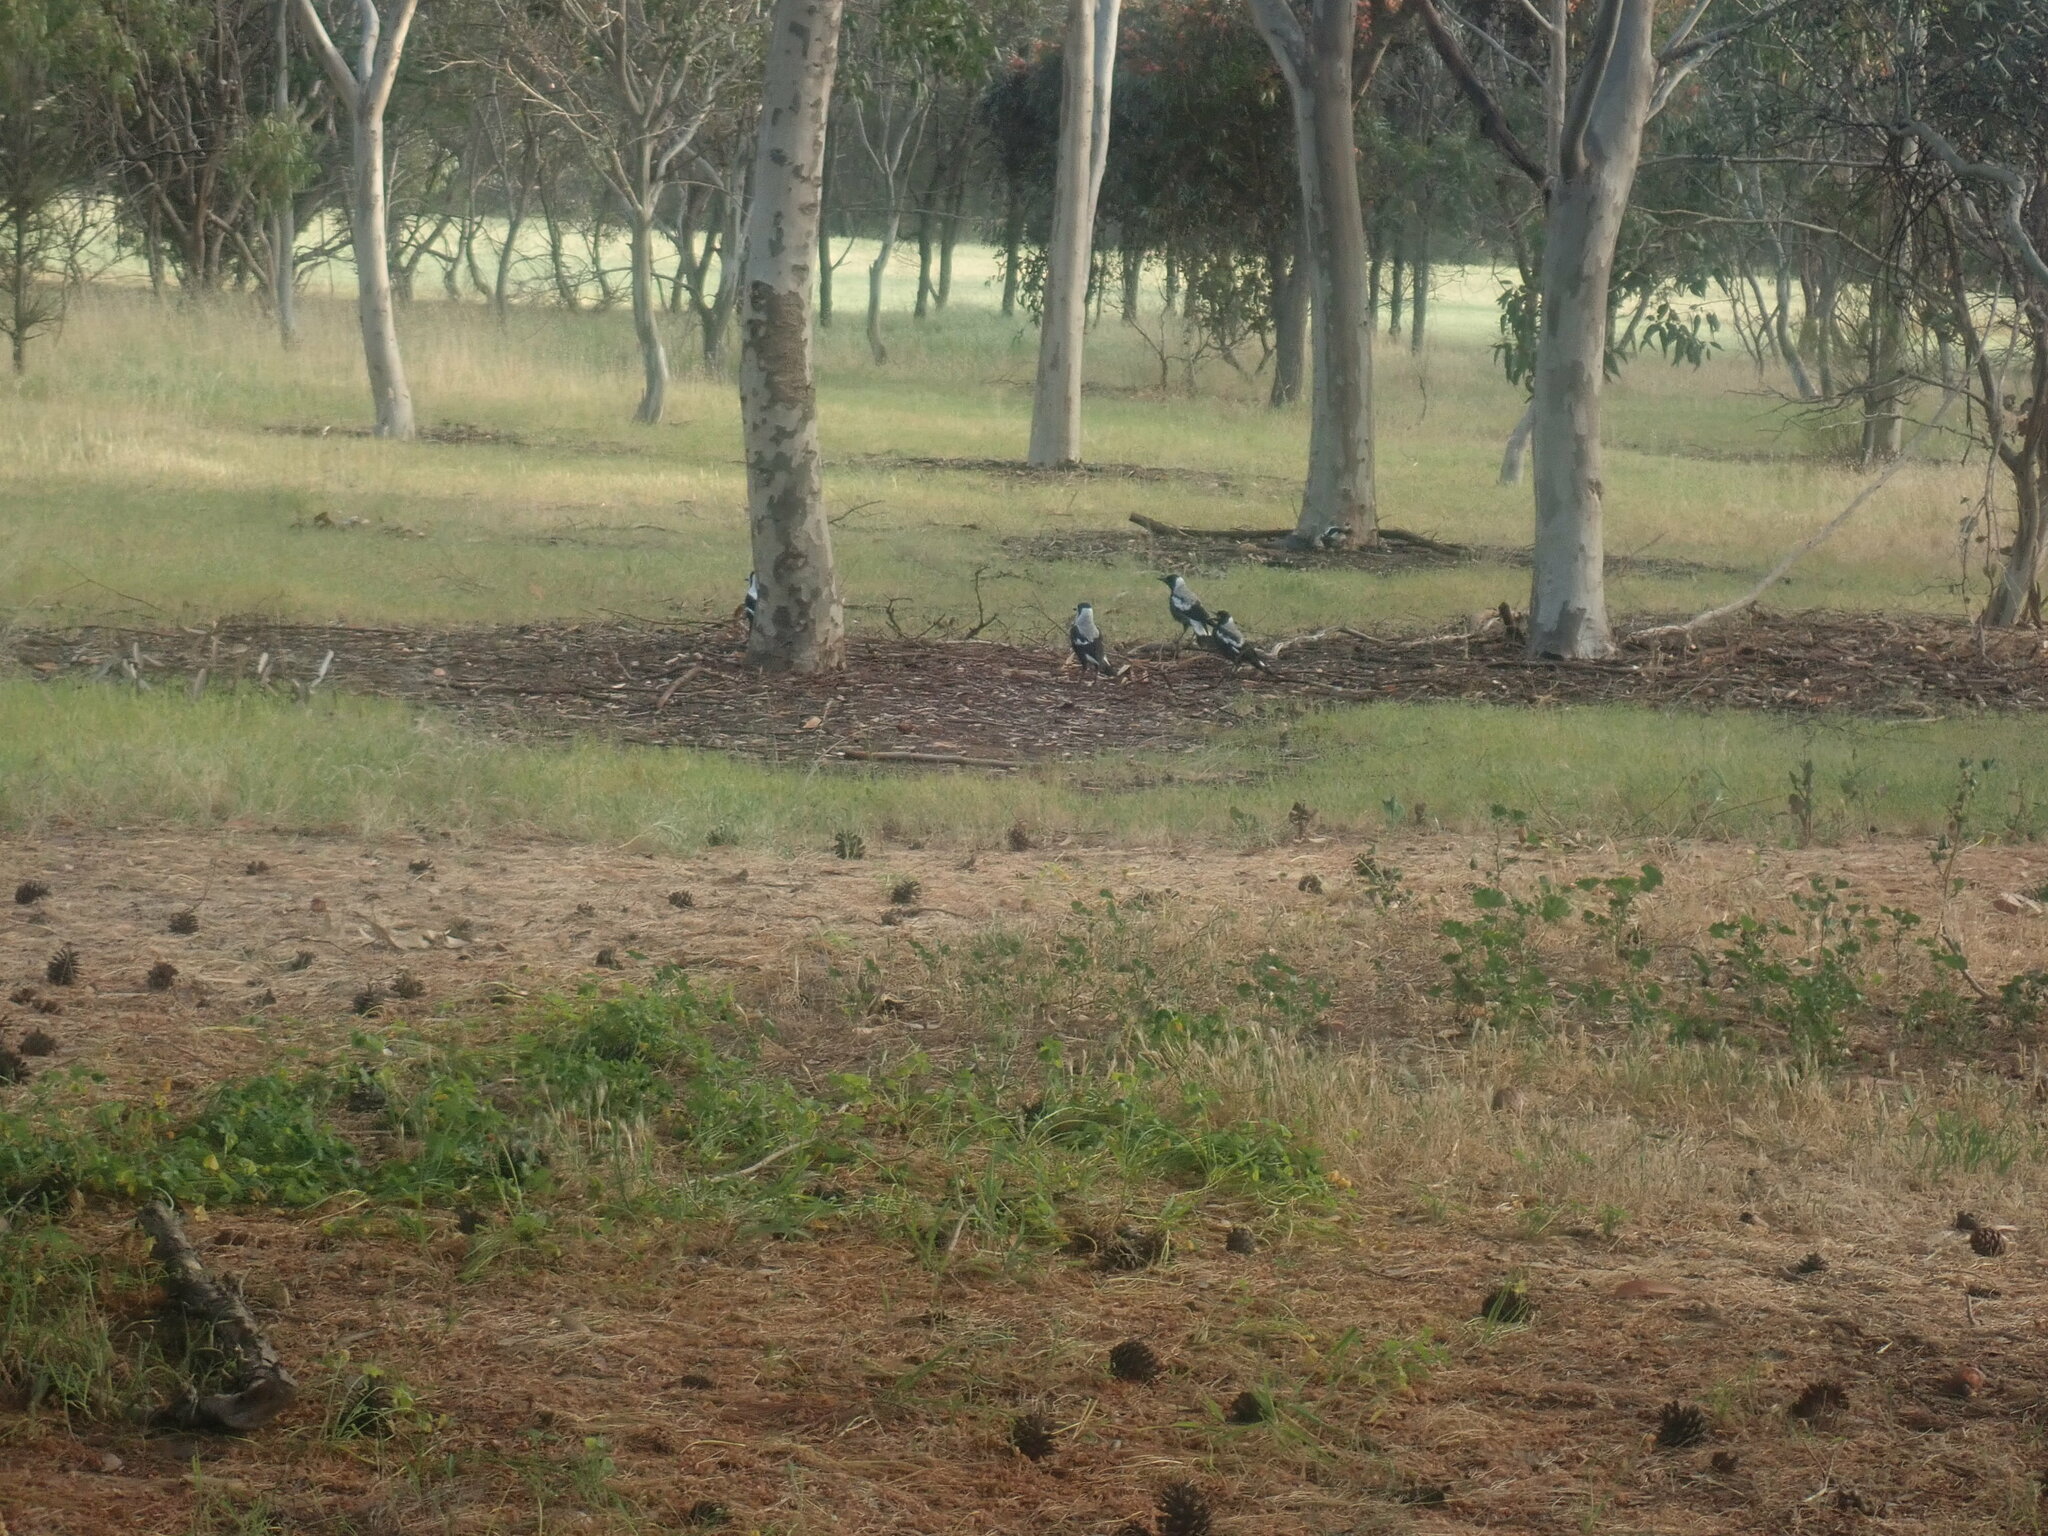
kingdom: Animalia
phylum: Chordata
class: Aves
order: Passeriformes
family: Cracticidae
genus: Gymnorhina
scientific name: Gymnorhina tibicen
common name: Australian magpie
